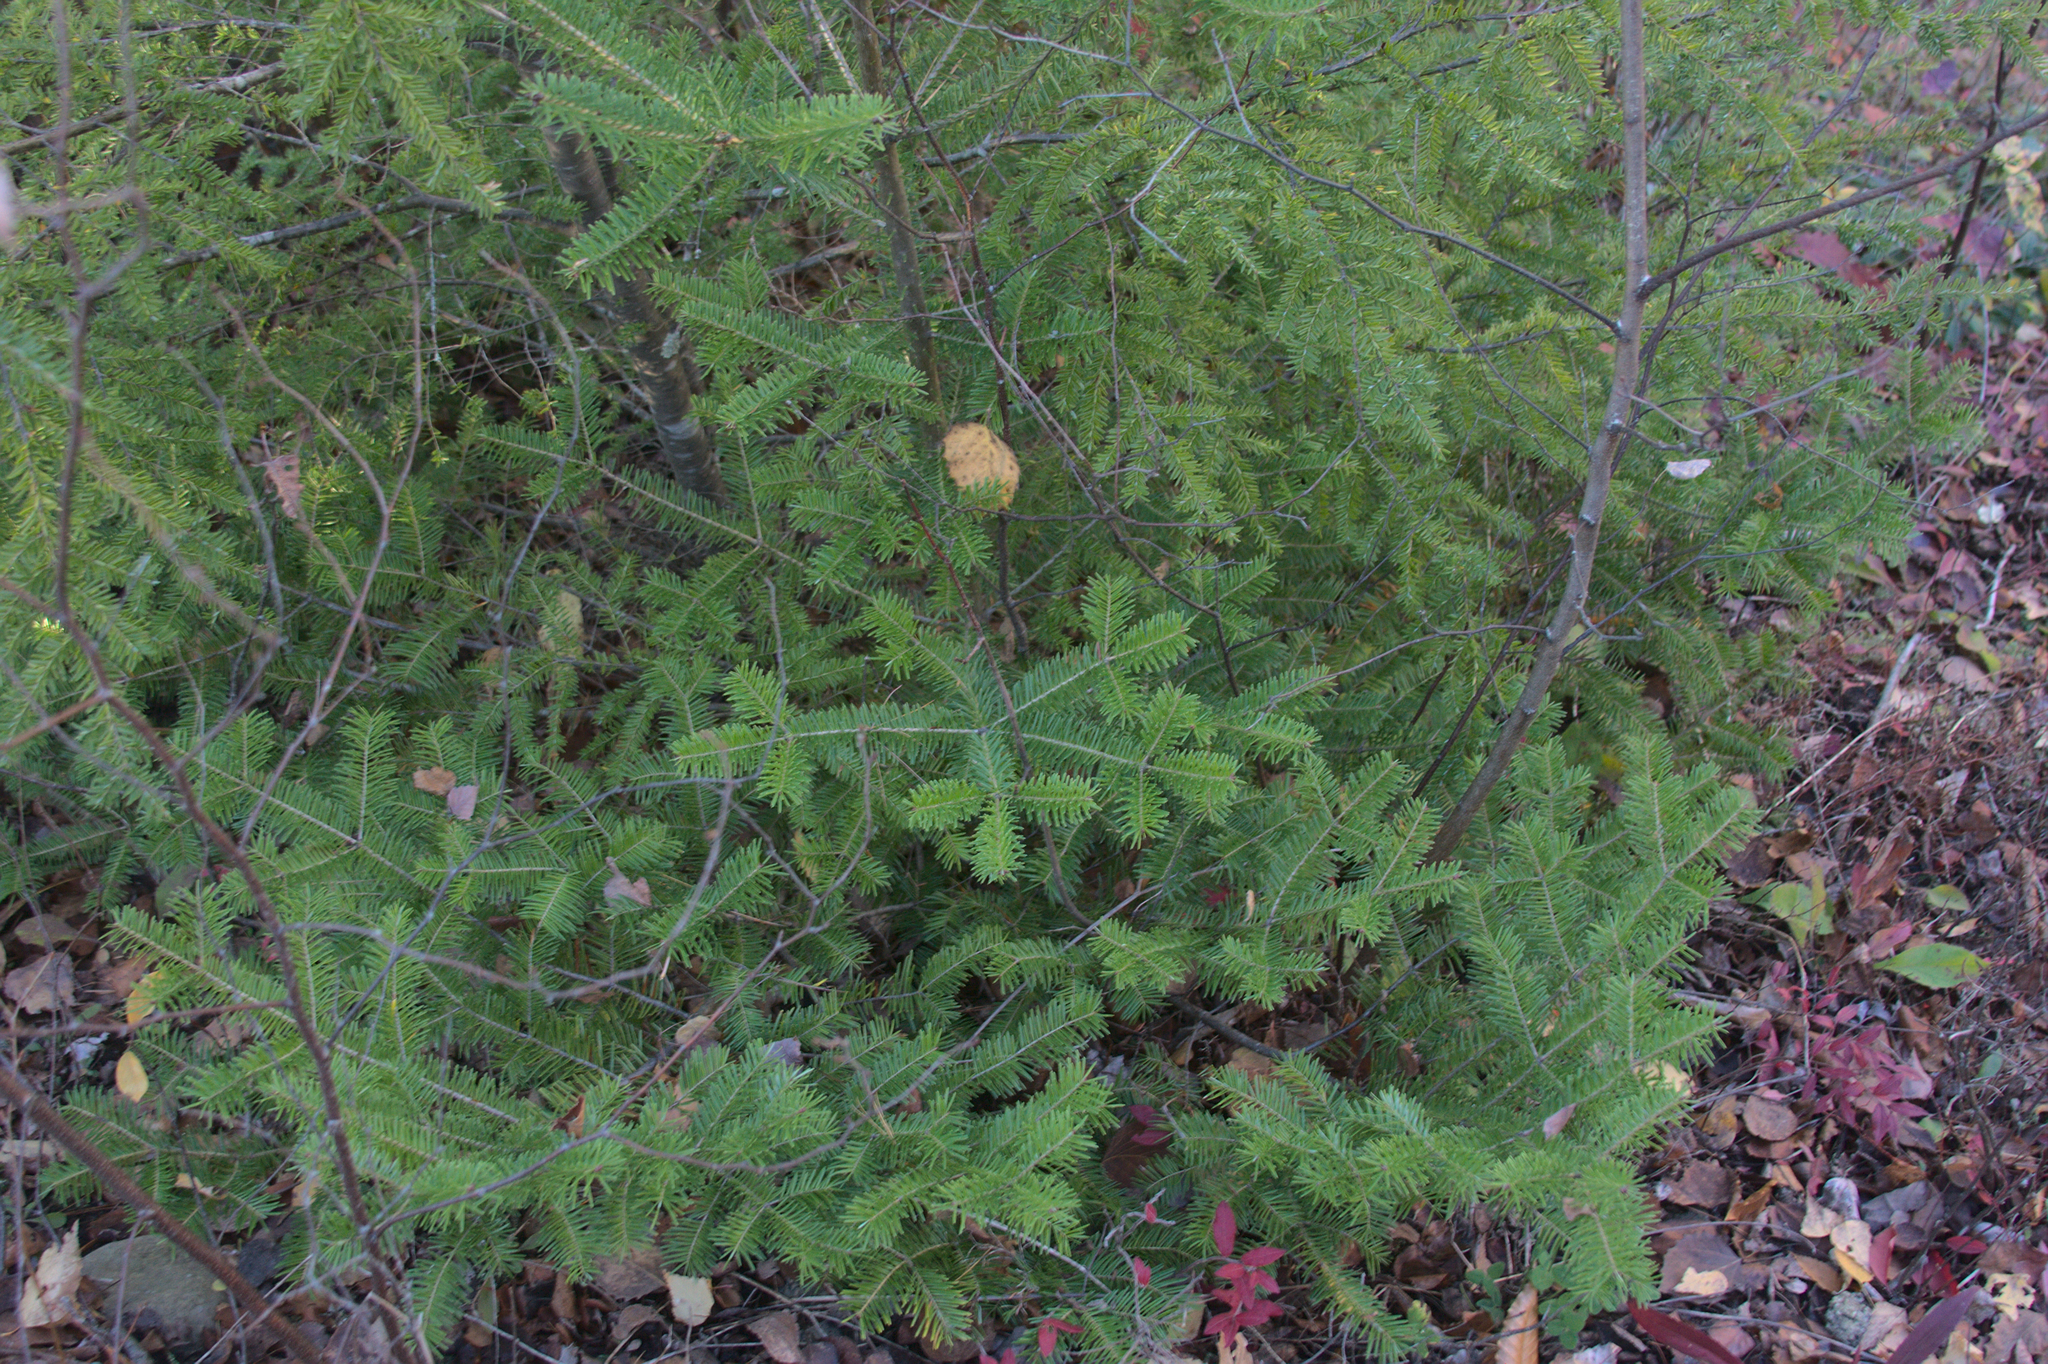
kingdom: Plantae
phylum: Tracheophyta
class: Pinopsida
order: Pinales
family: Pinaceae
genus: Abies
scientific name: Abies balsamea
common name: Balsam fir
